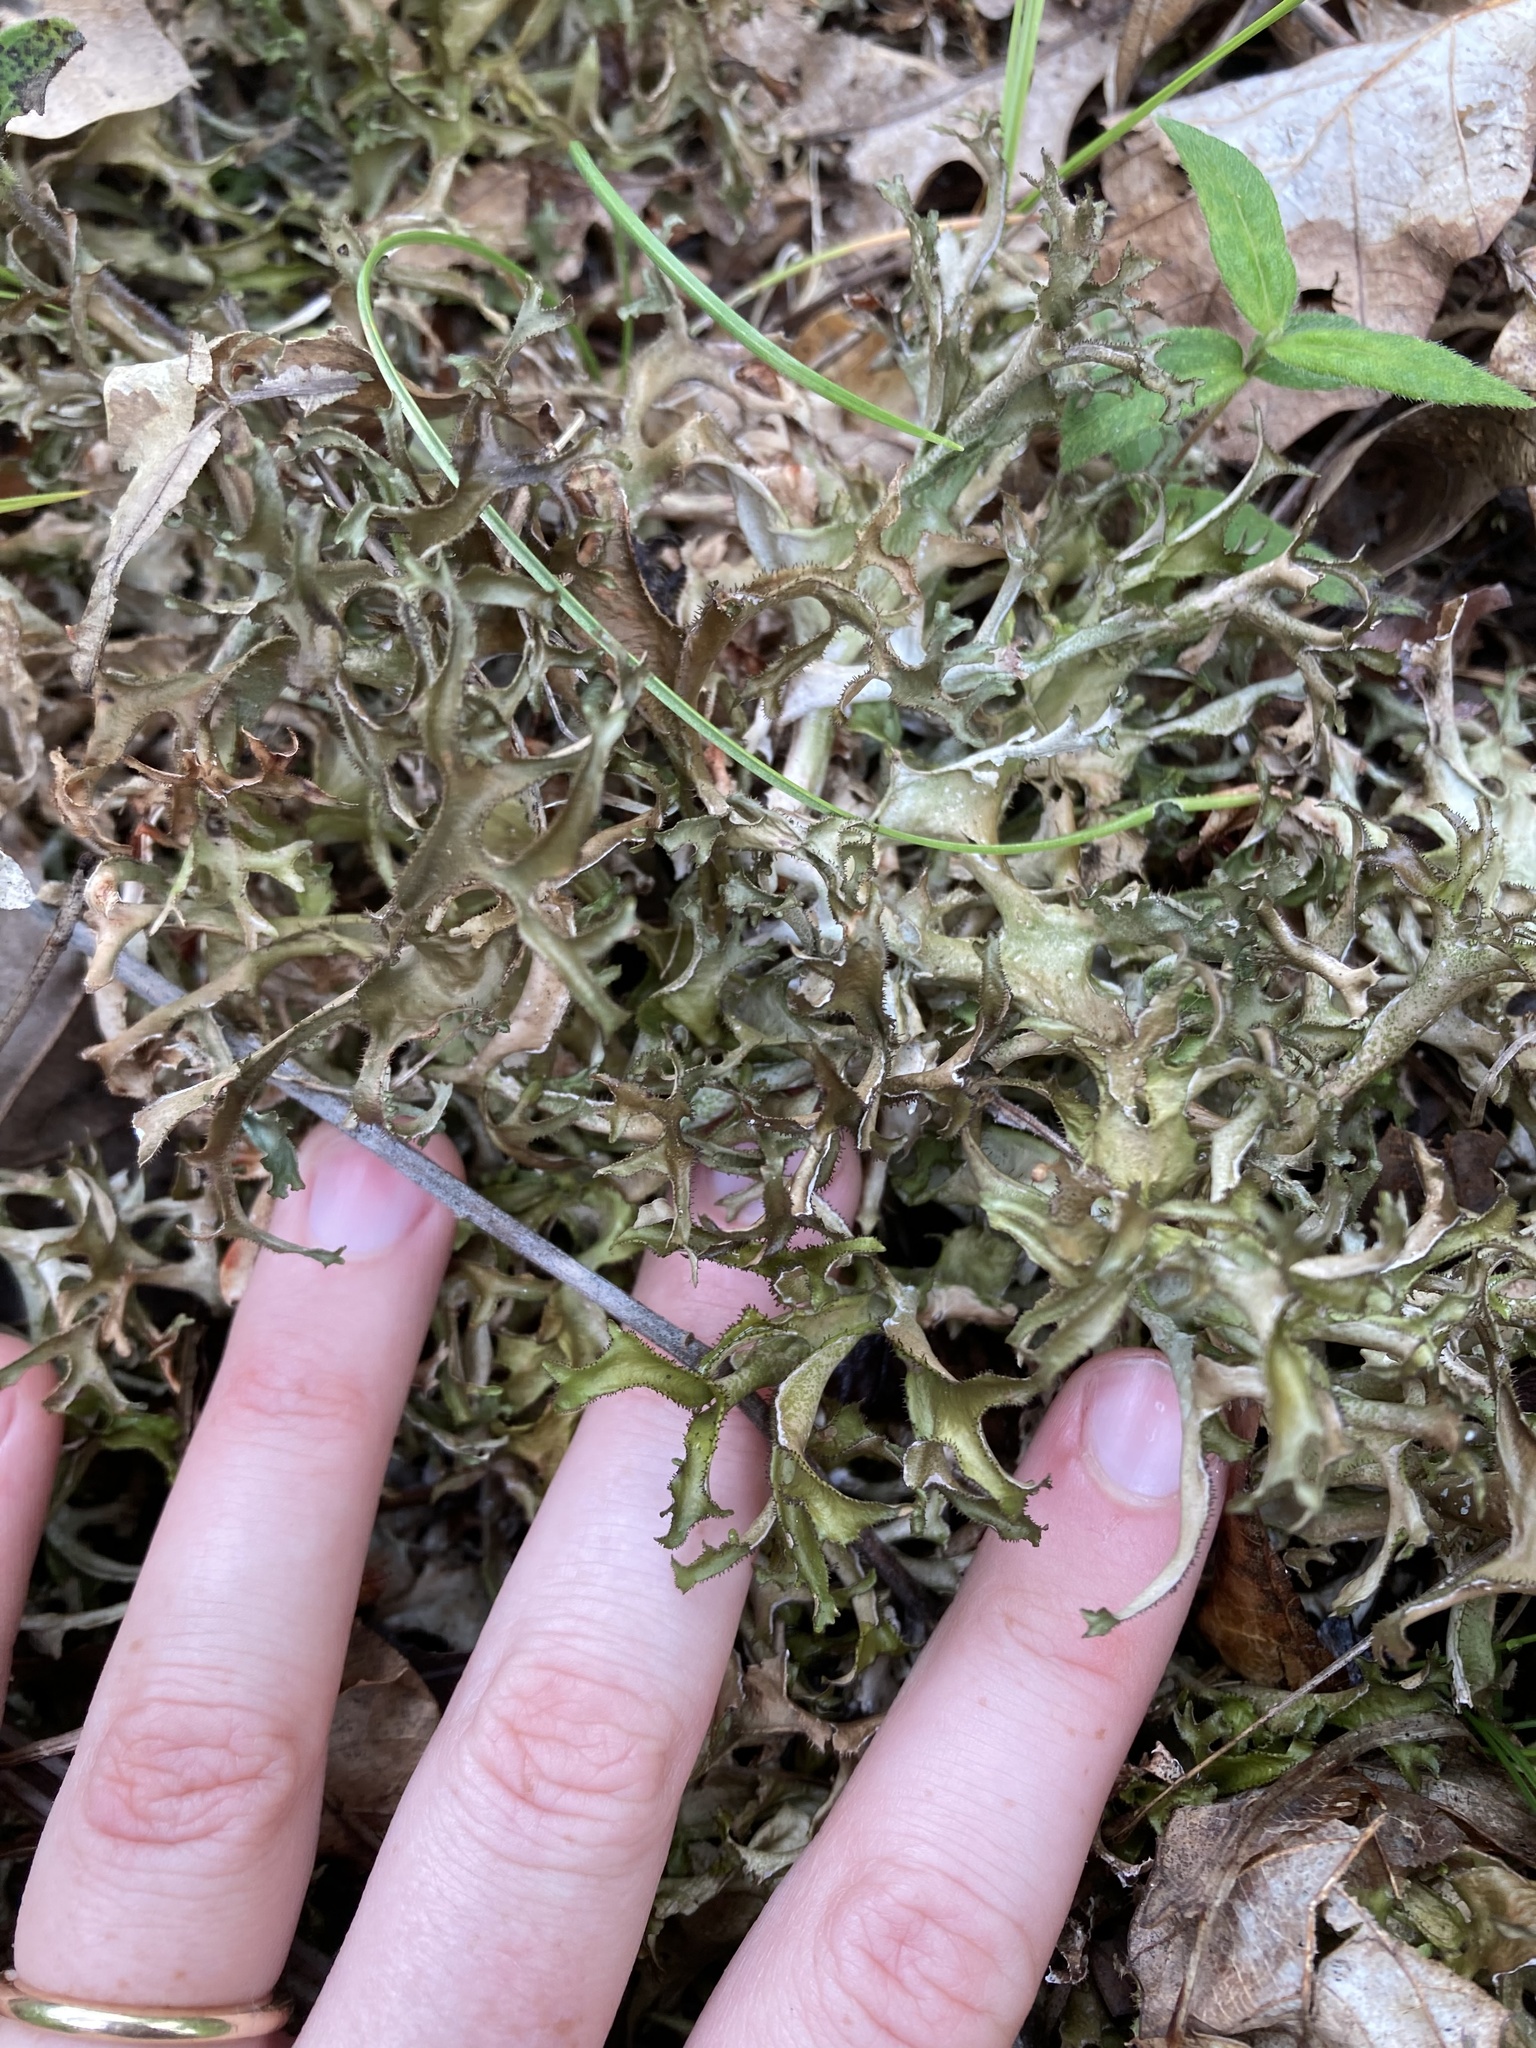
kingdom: Fungi
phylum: Ascomycota
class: Lecanoromycetes
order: Lecanorales
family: Parmeliaceae
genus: Cetraria
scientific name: Cetraria arenaria
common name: Sand-loving iceland lichen
